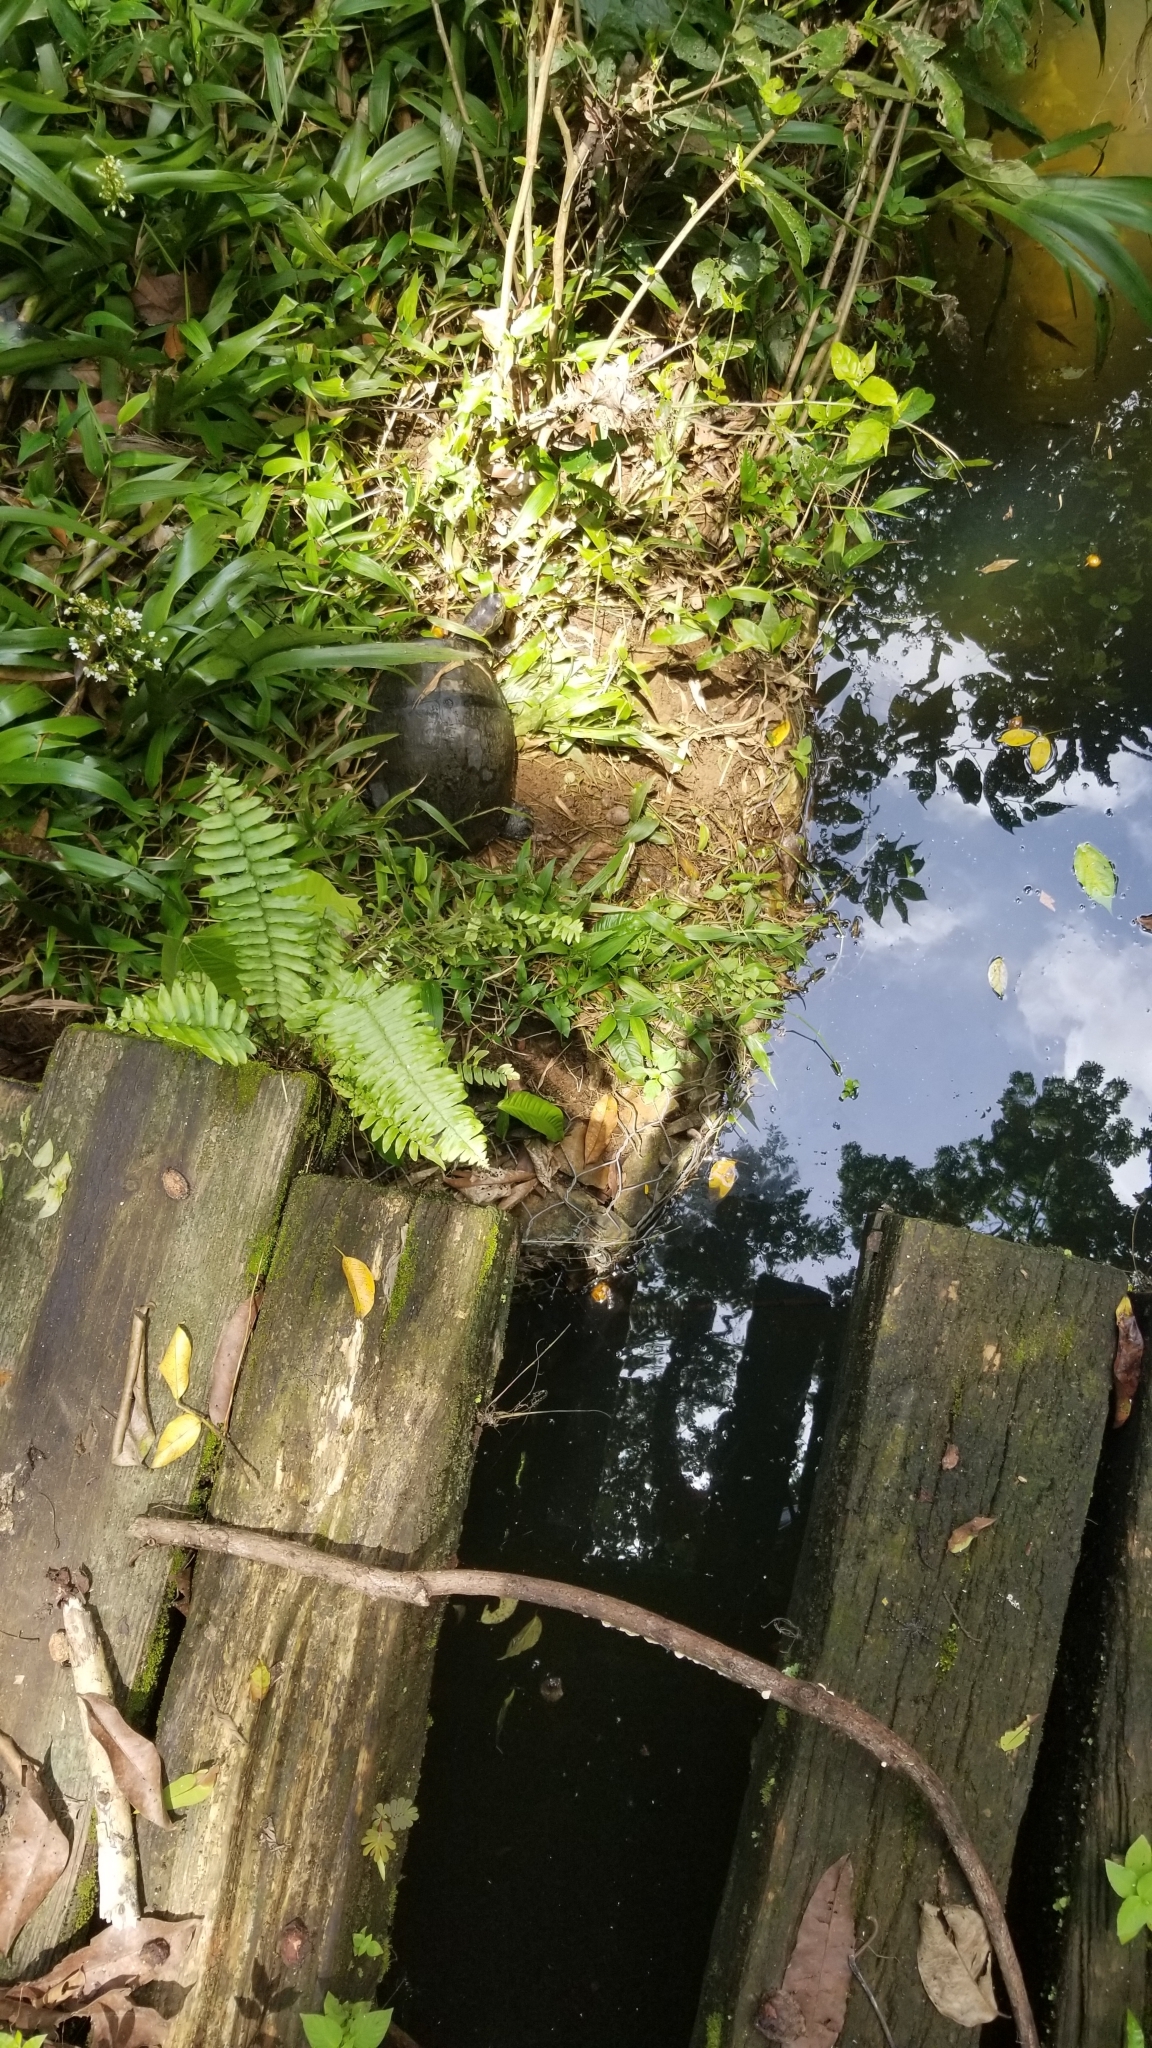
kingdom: Animalia
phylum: Chordata
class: Testudines
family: Geoemydidae
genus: Rhinoclemmys
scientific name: Rhinoclemmys annulata
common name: Brown wood turtle
